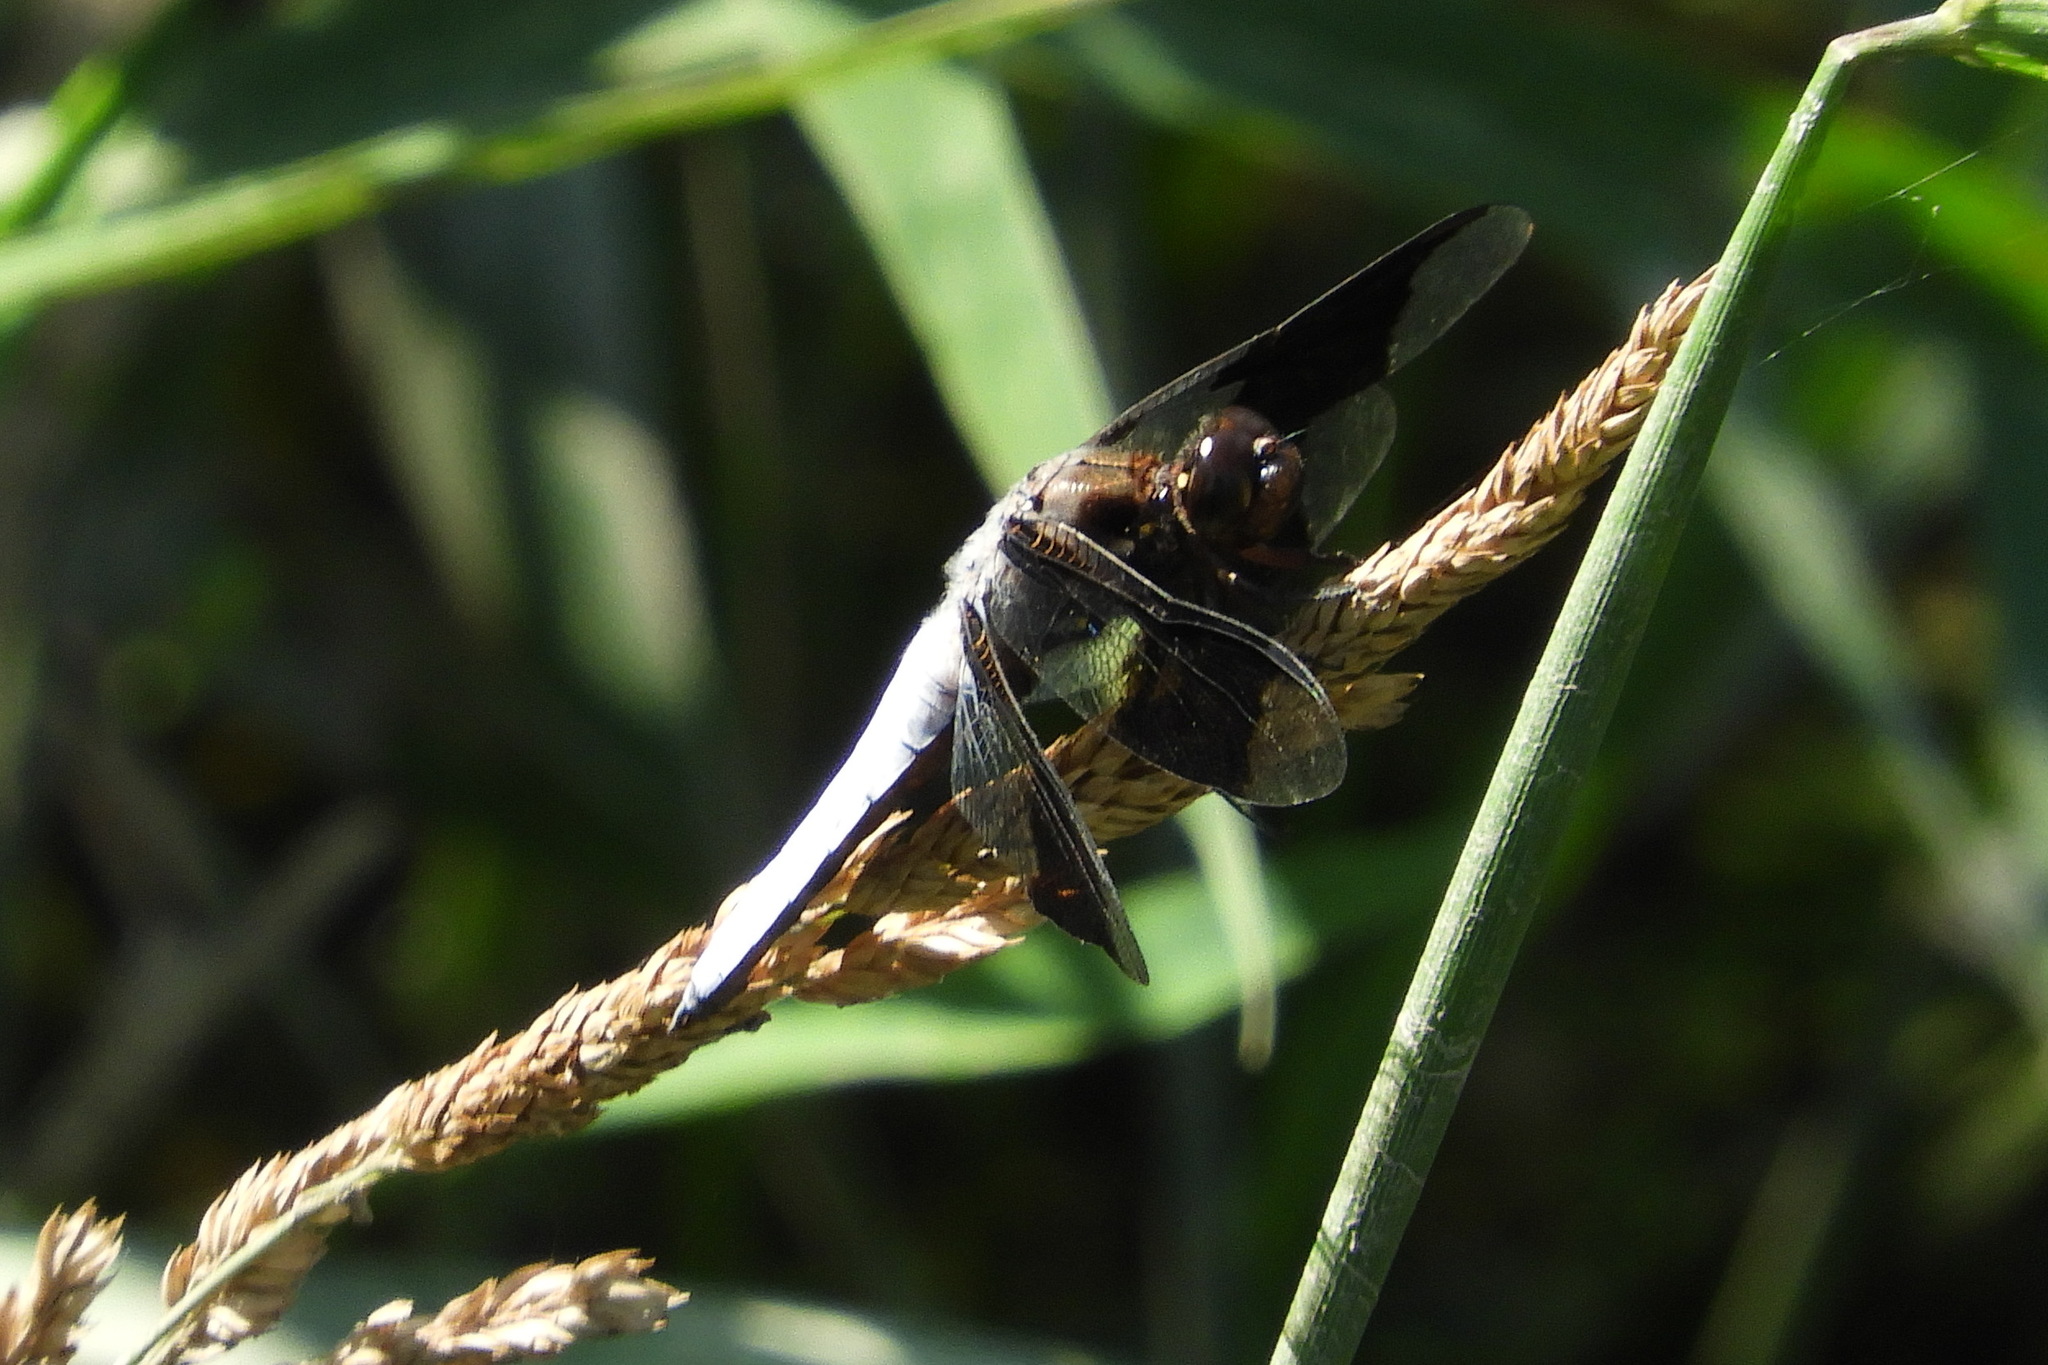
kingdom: Animalia
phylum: Arthropoda
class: Insecta
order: Odonata
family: Libellulidae
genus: Plathemis
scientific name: Plathemis lydia
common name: Common whitetail
